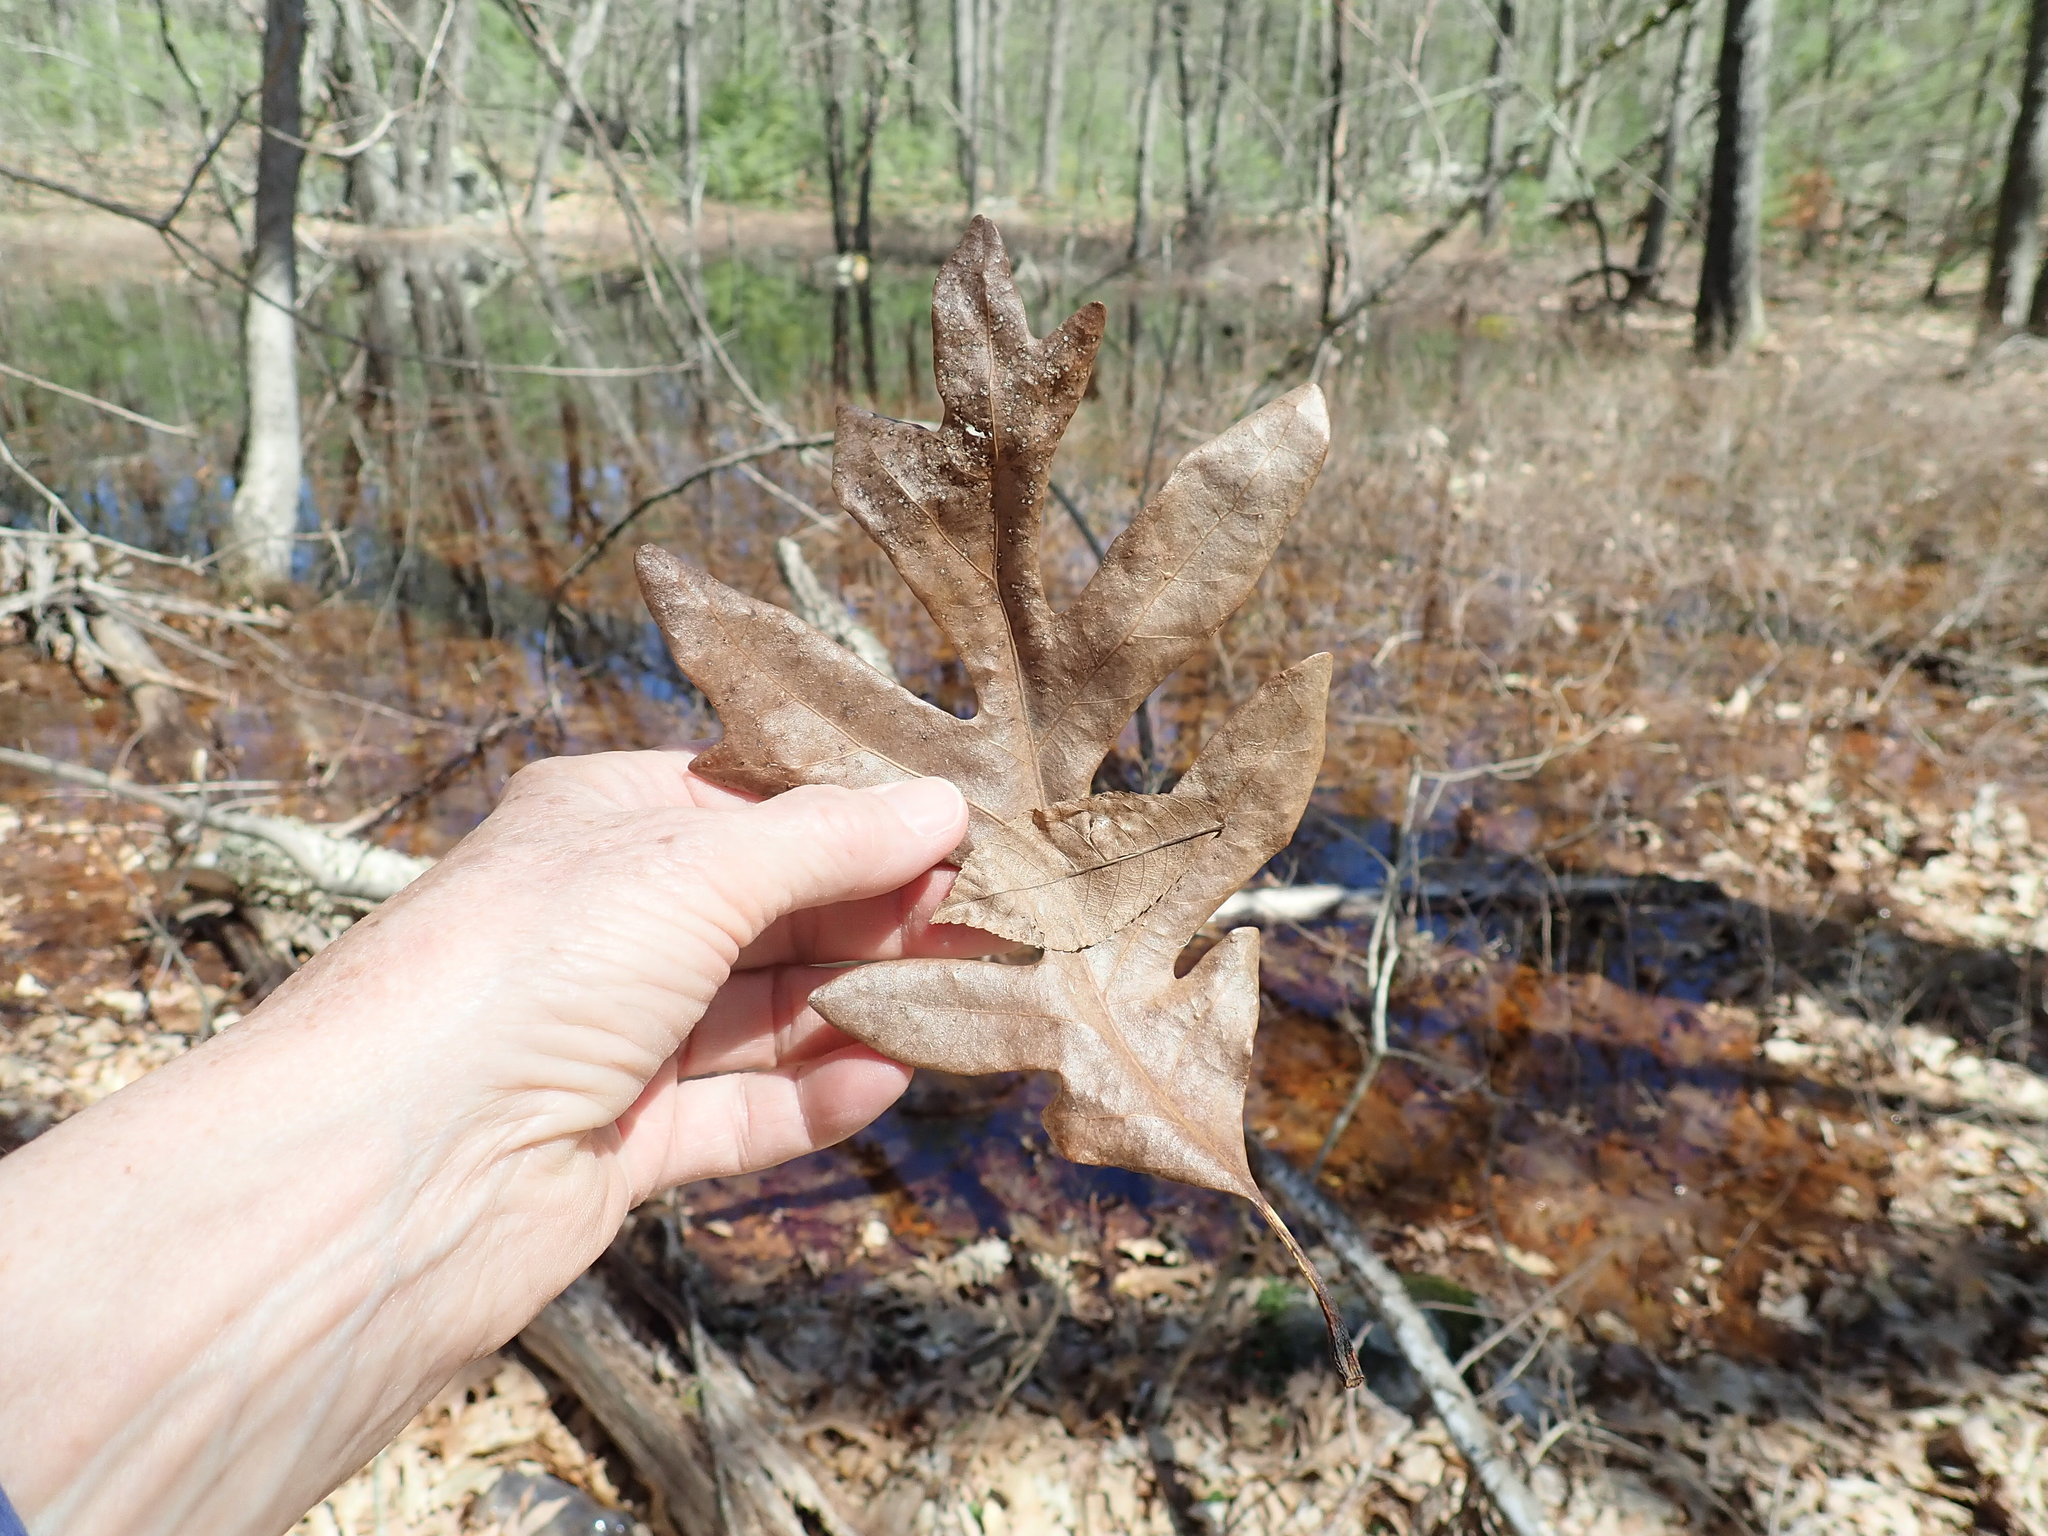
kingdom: Plantae
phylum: Tracheophyta
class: Magnoliopsida
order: Fagales
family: Fagaceae
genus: Quercus
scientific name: Quercus alba
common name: White oak
